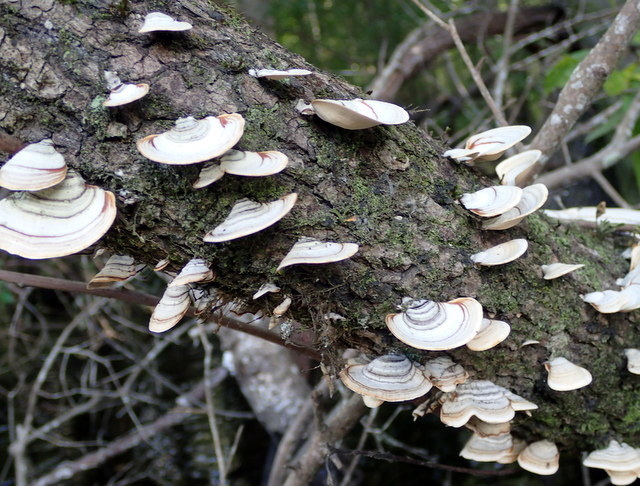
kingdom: Fungi
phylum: Basidiomycota
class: Agaricomycetes
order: Russulales
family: Stereaceae
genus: Stereum
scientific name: Stereum ostrea
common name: False turkeytail
